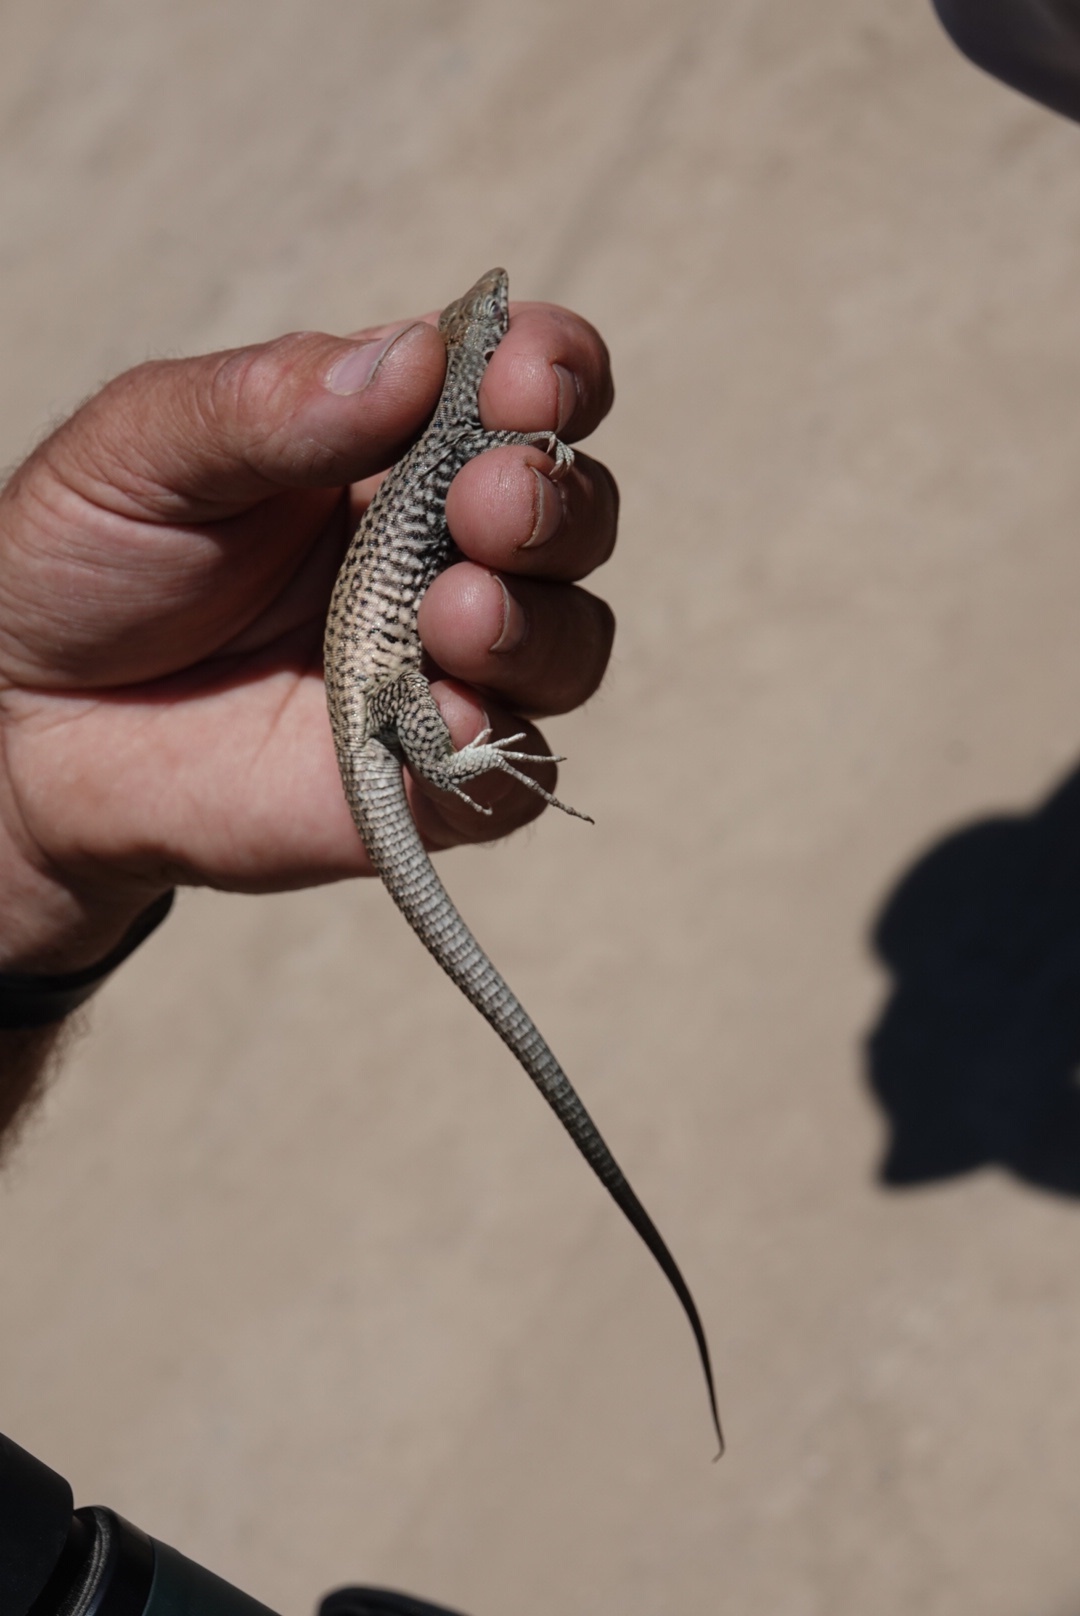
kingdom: Animalia
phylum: Chordata
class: Squamata
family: Teiidae
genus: Aspidoscelis
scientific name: Aspidoscelis tigris
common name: Tiger whiptail
